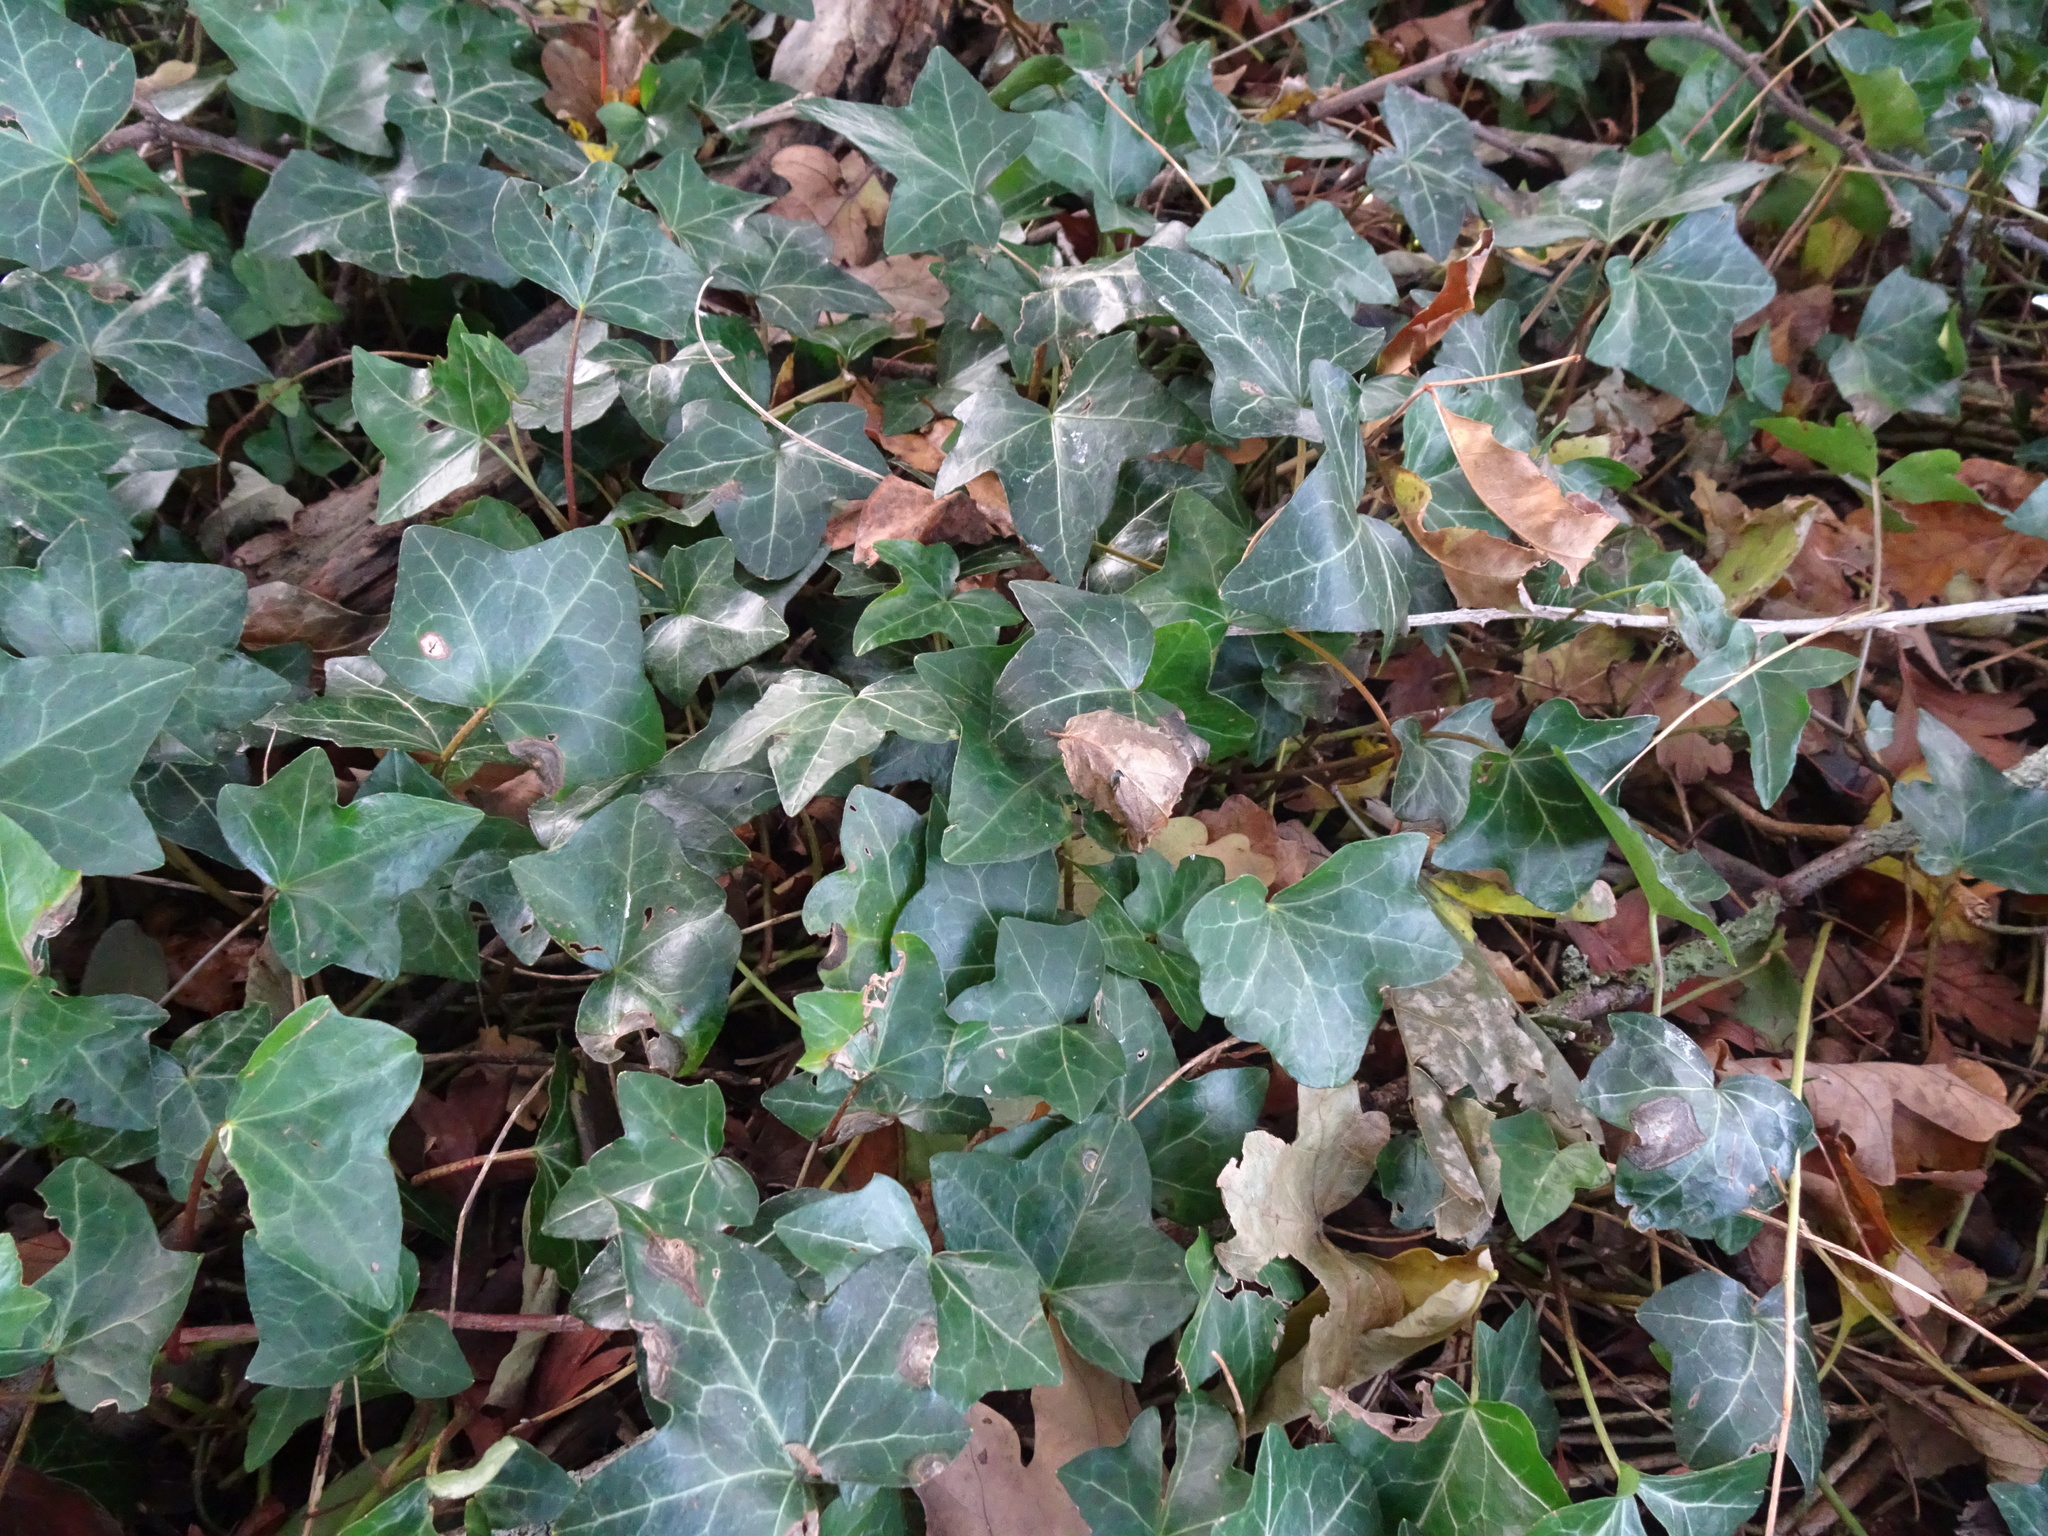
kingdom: Plantae
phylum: Tracheophyta
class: Magnoliopsida
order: Apiales
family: Araliaceae
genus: Hedera
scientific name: Hedera helix
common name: Ivy
